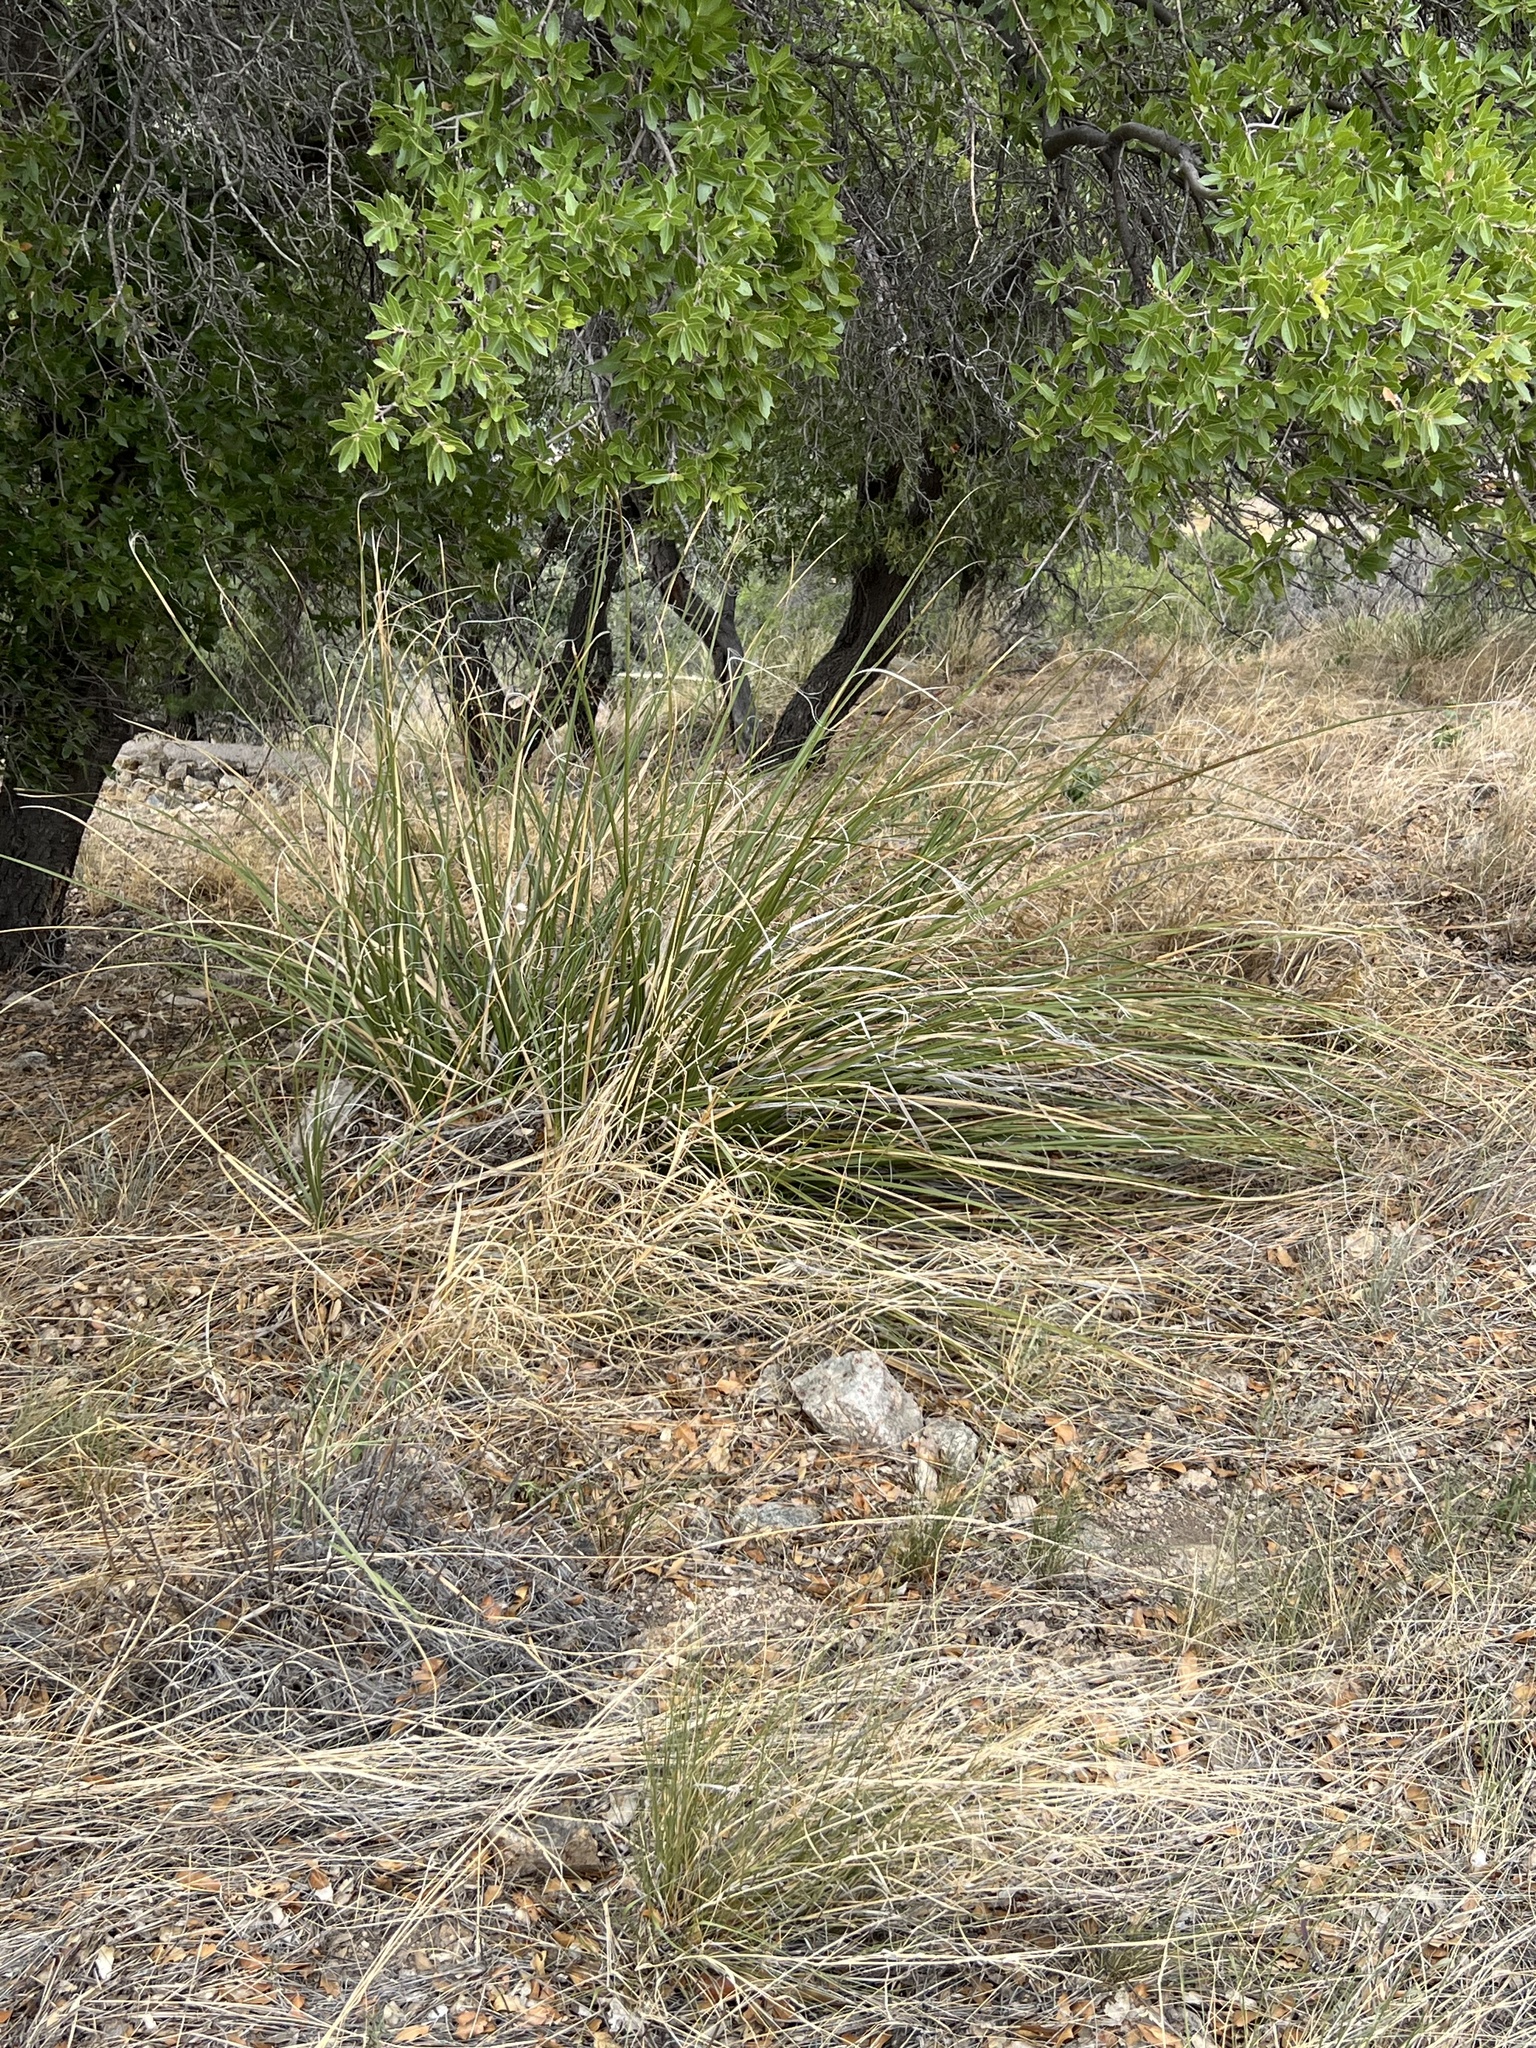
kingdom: Plantae
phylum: Tracheophyta
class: Liliopsida
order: Asparagales
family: Asparagaceae
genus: Nolina
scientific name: Nolina microcarpa
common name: Bear-grass
